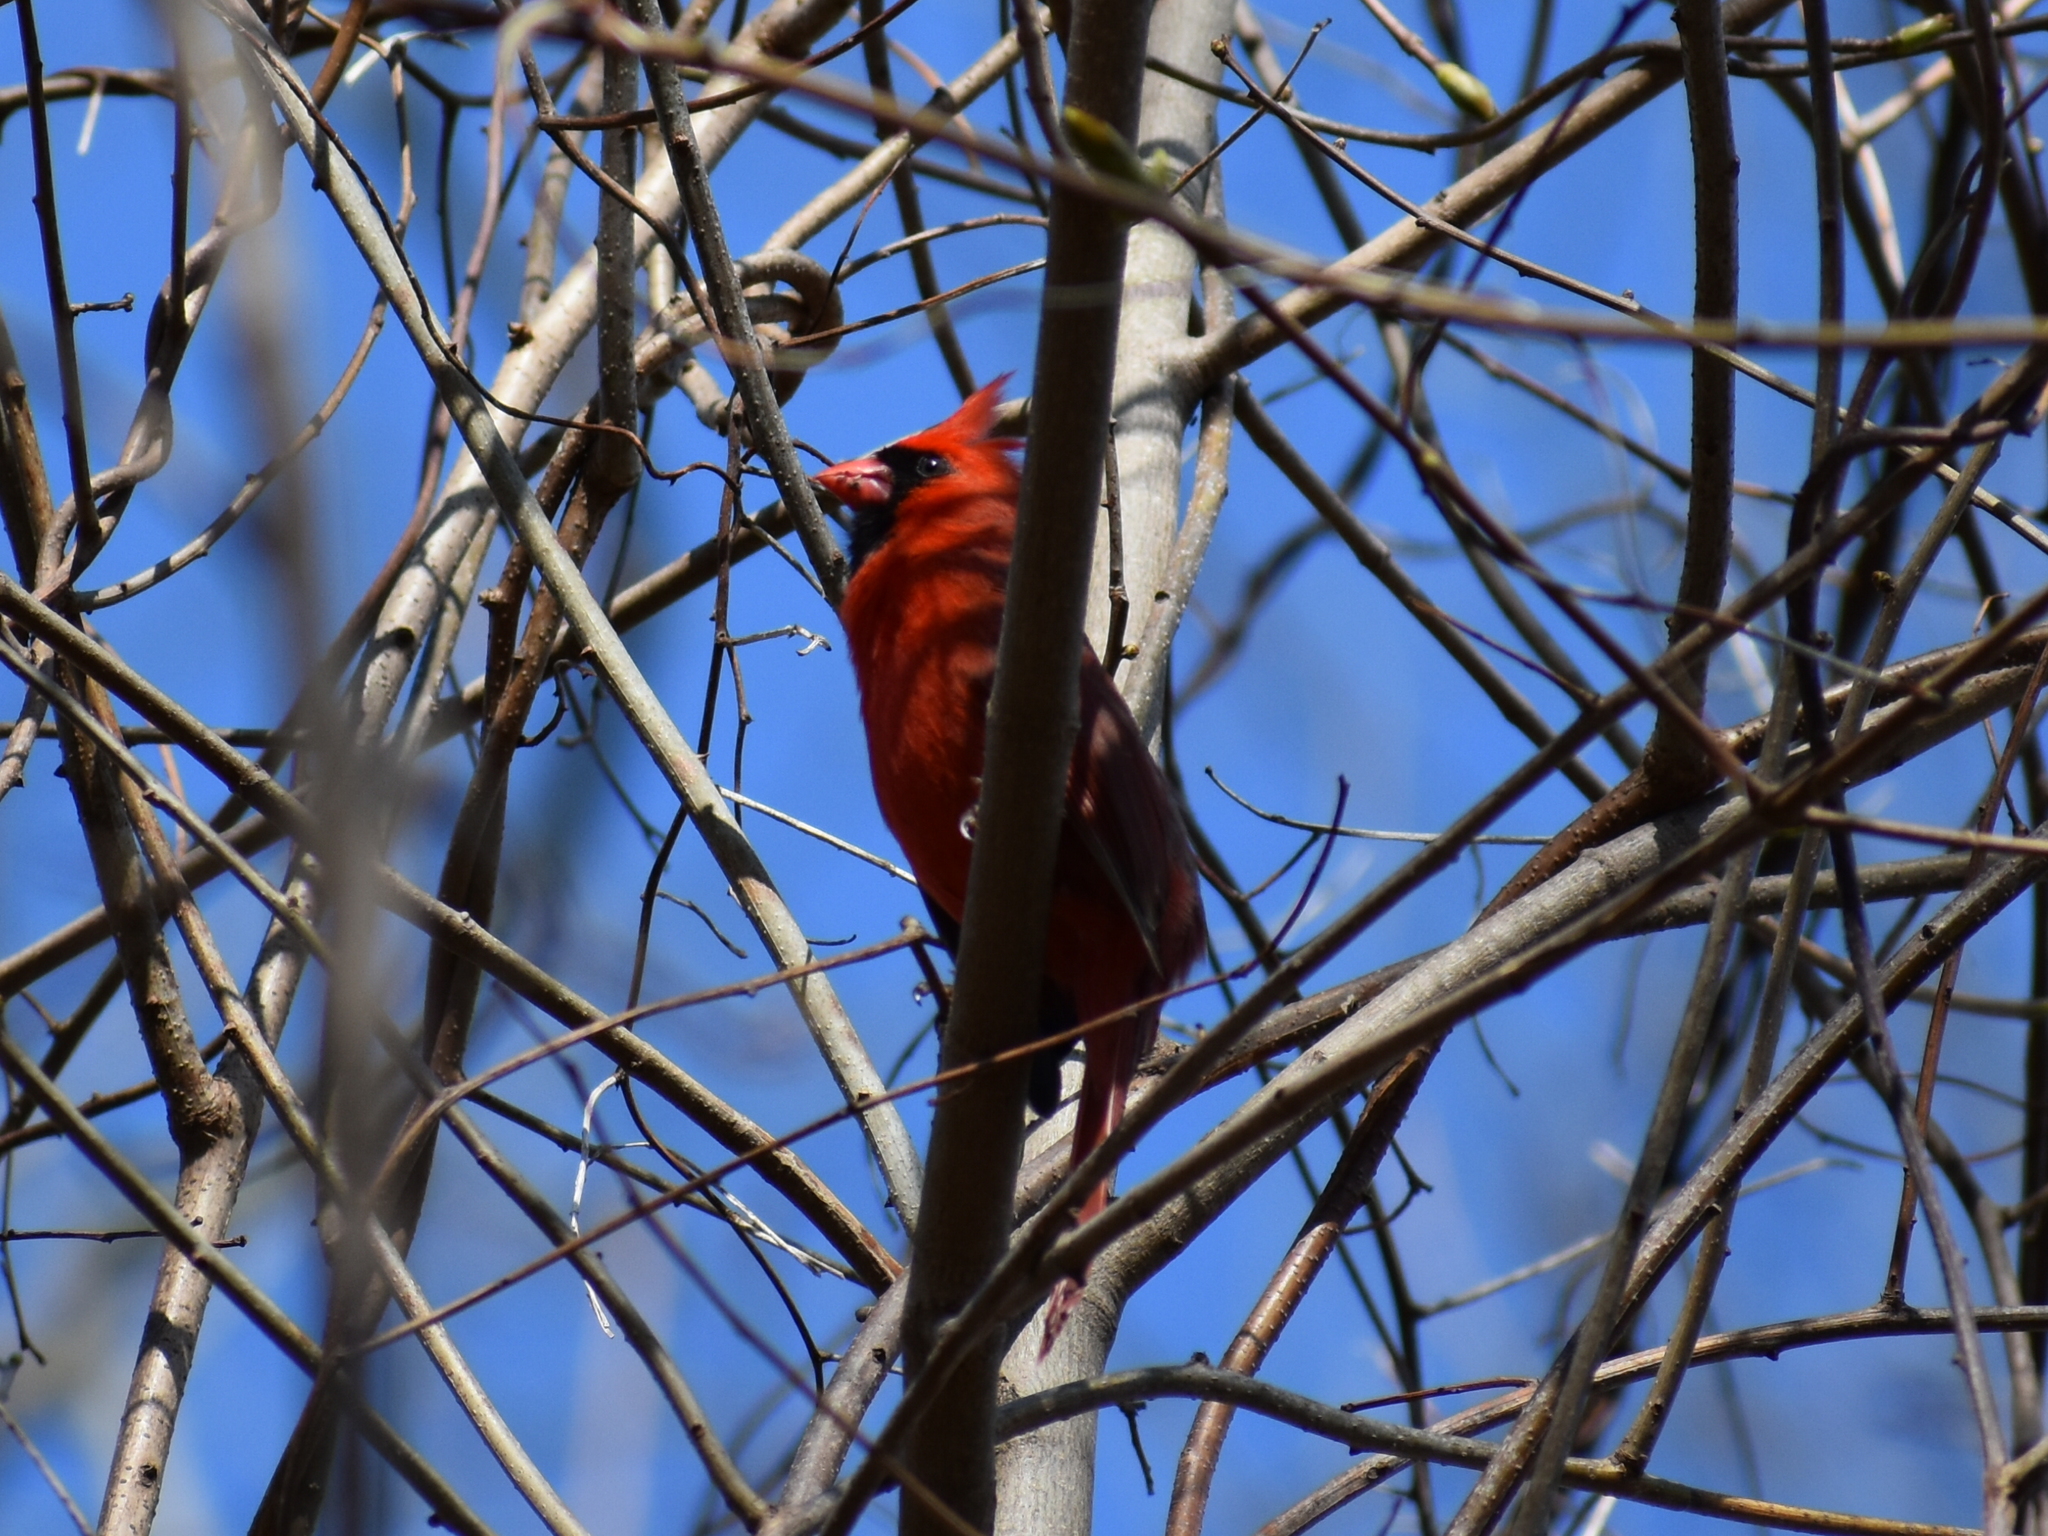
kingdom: Animalia
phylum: Chordata
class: Aves
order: Passeriformes
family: Cardinalidae
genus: Cardinalis
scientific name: Cardinalis cardinalis
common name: Northern cardinal
